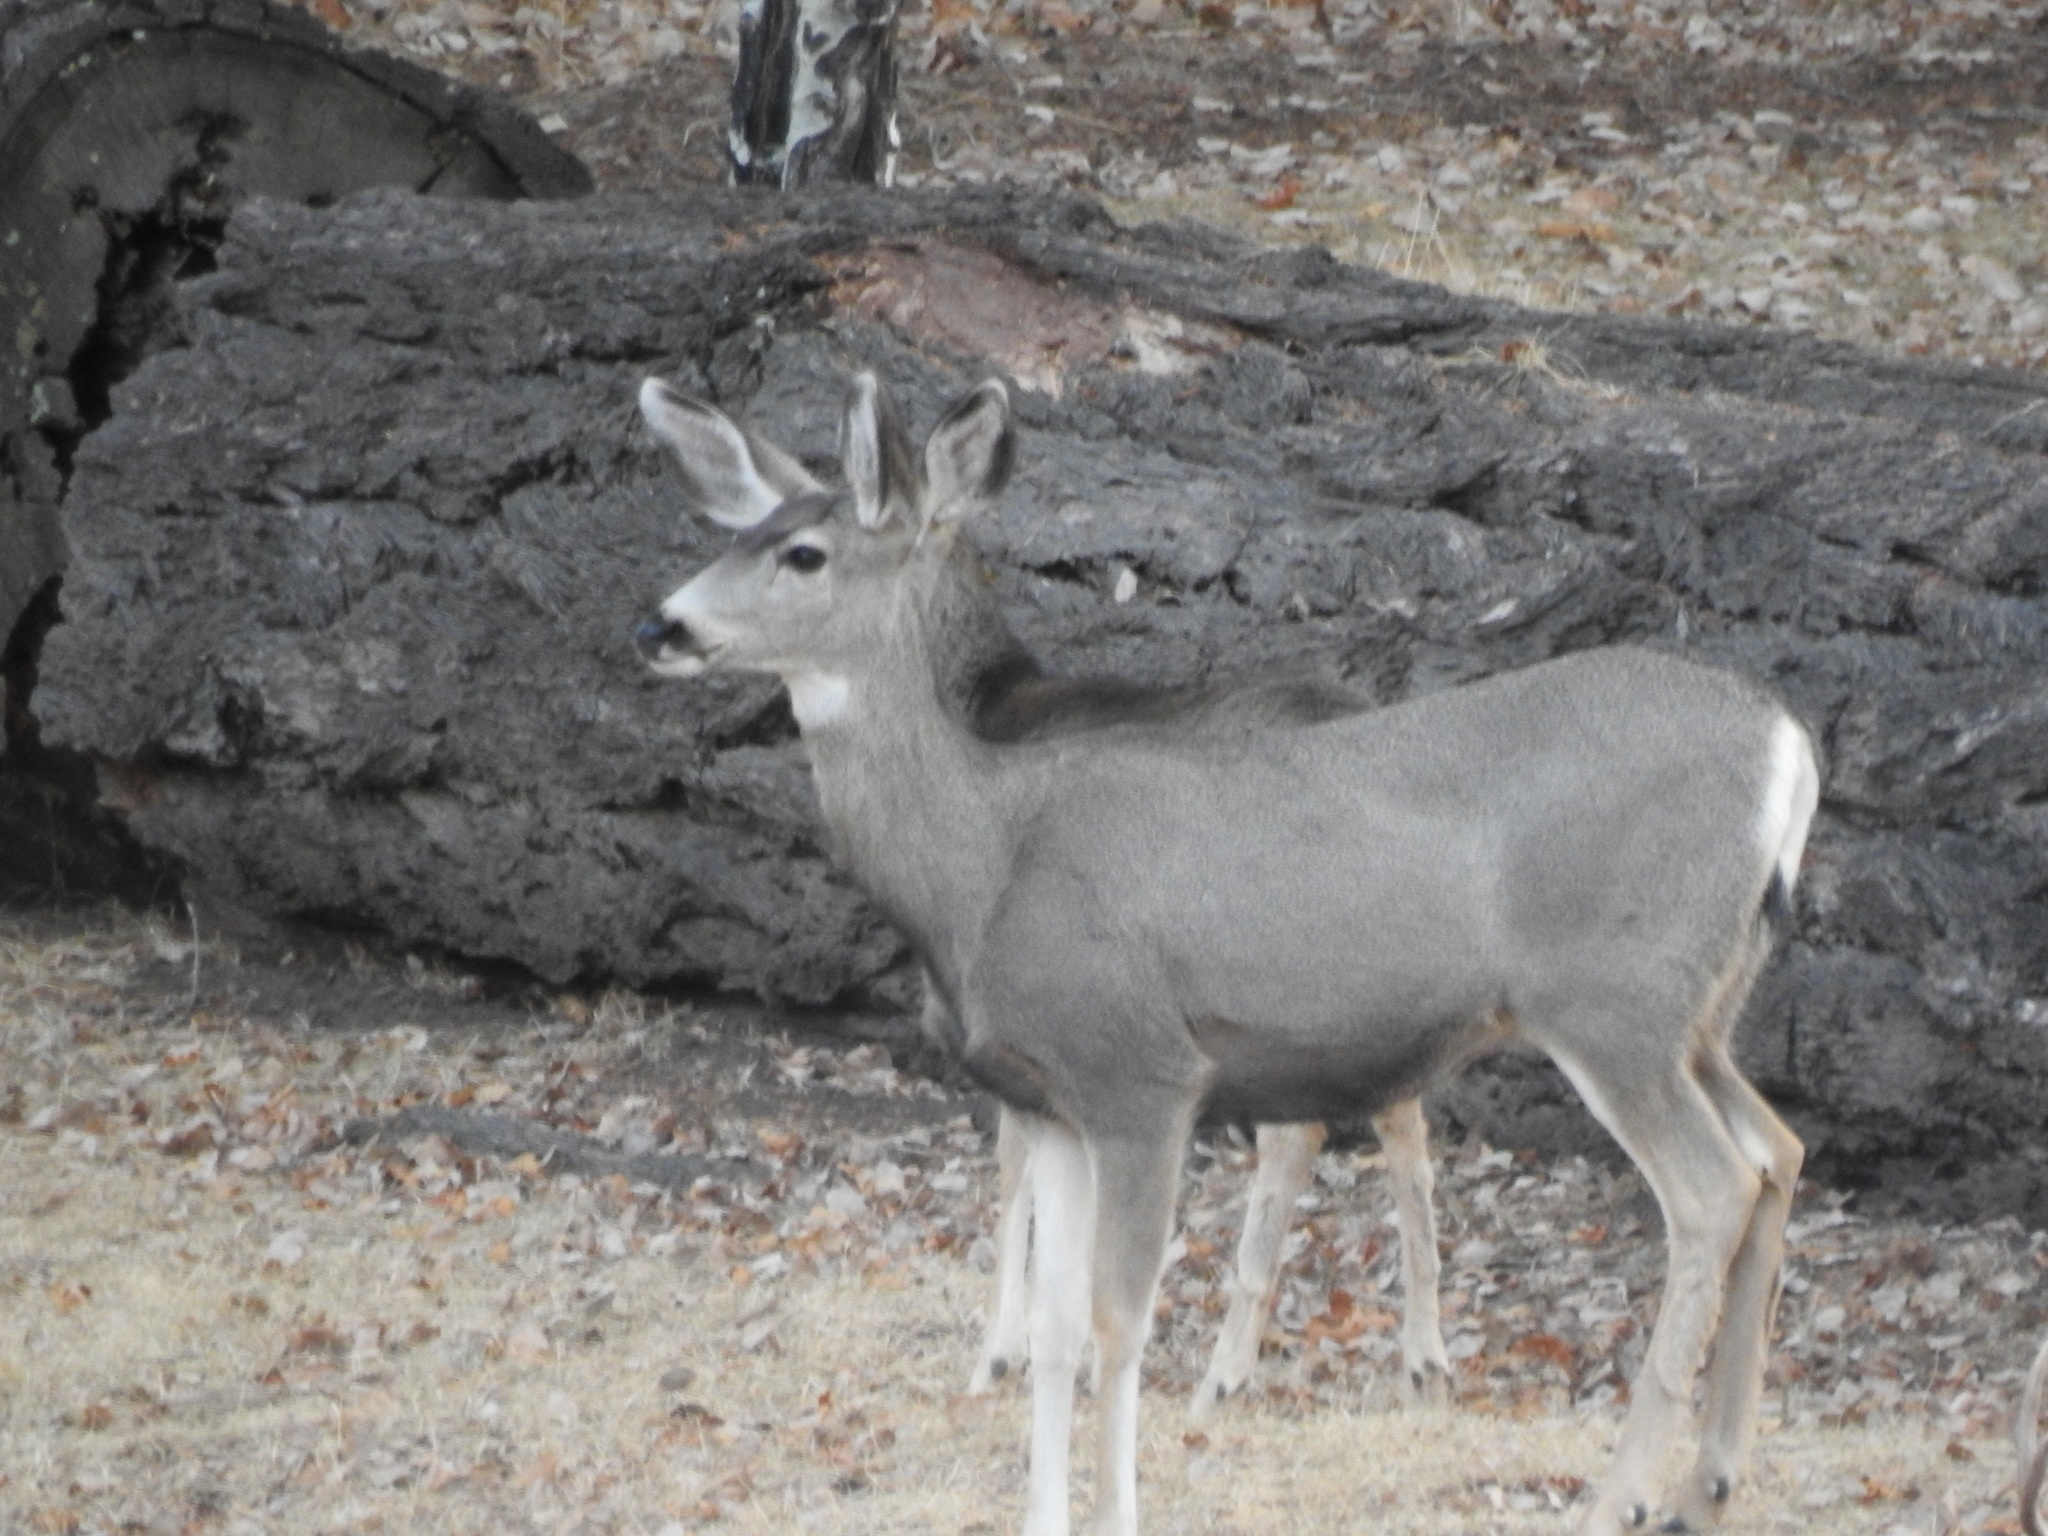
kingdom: Animalia
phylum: Chordata
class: Mammalia
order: Artiodactyla
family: Cervidae
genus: Odocoileus
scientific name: Odocoileus hemionus
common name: Mule deer
